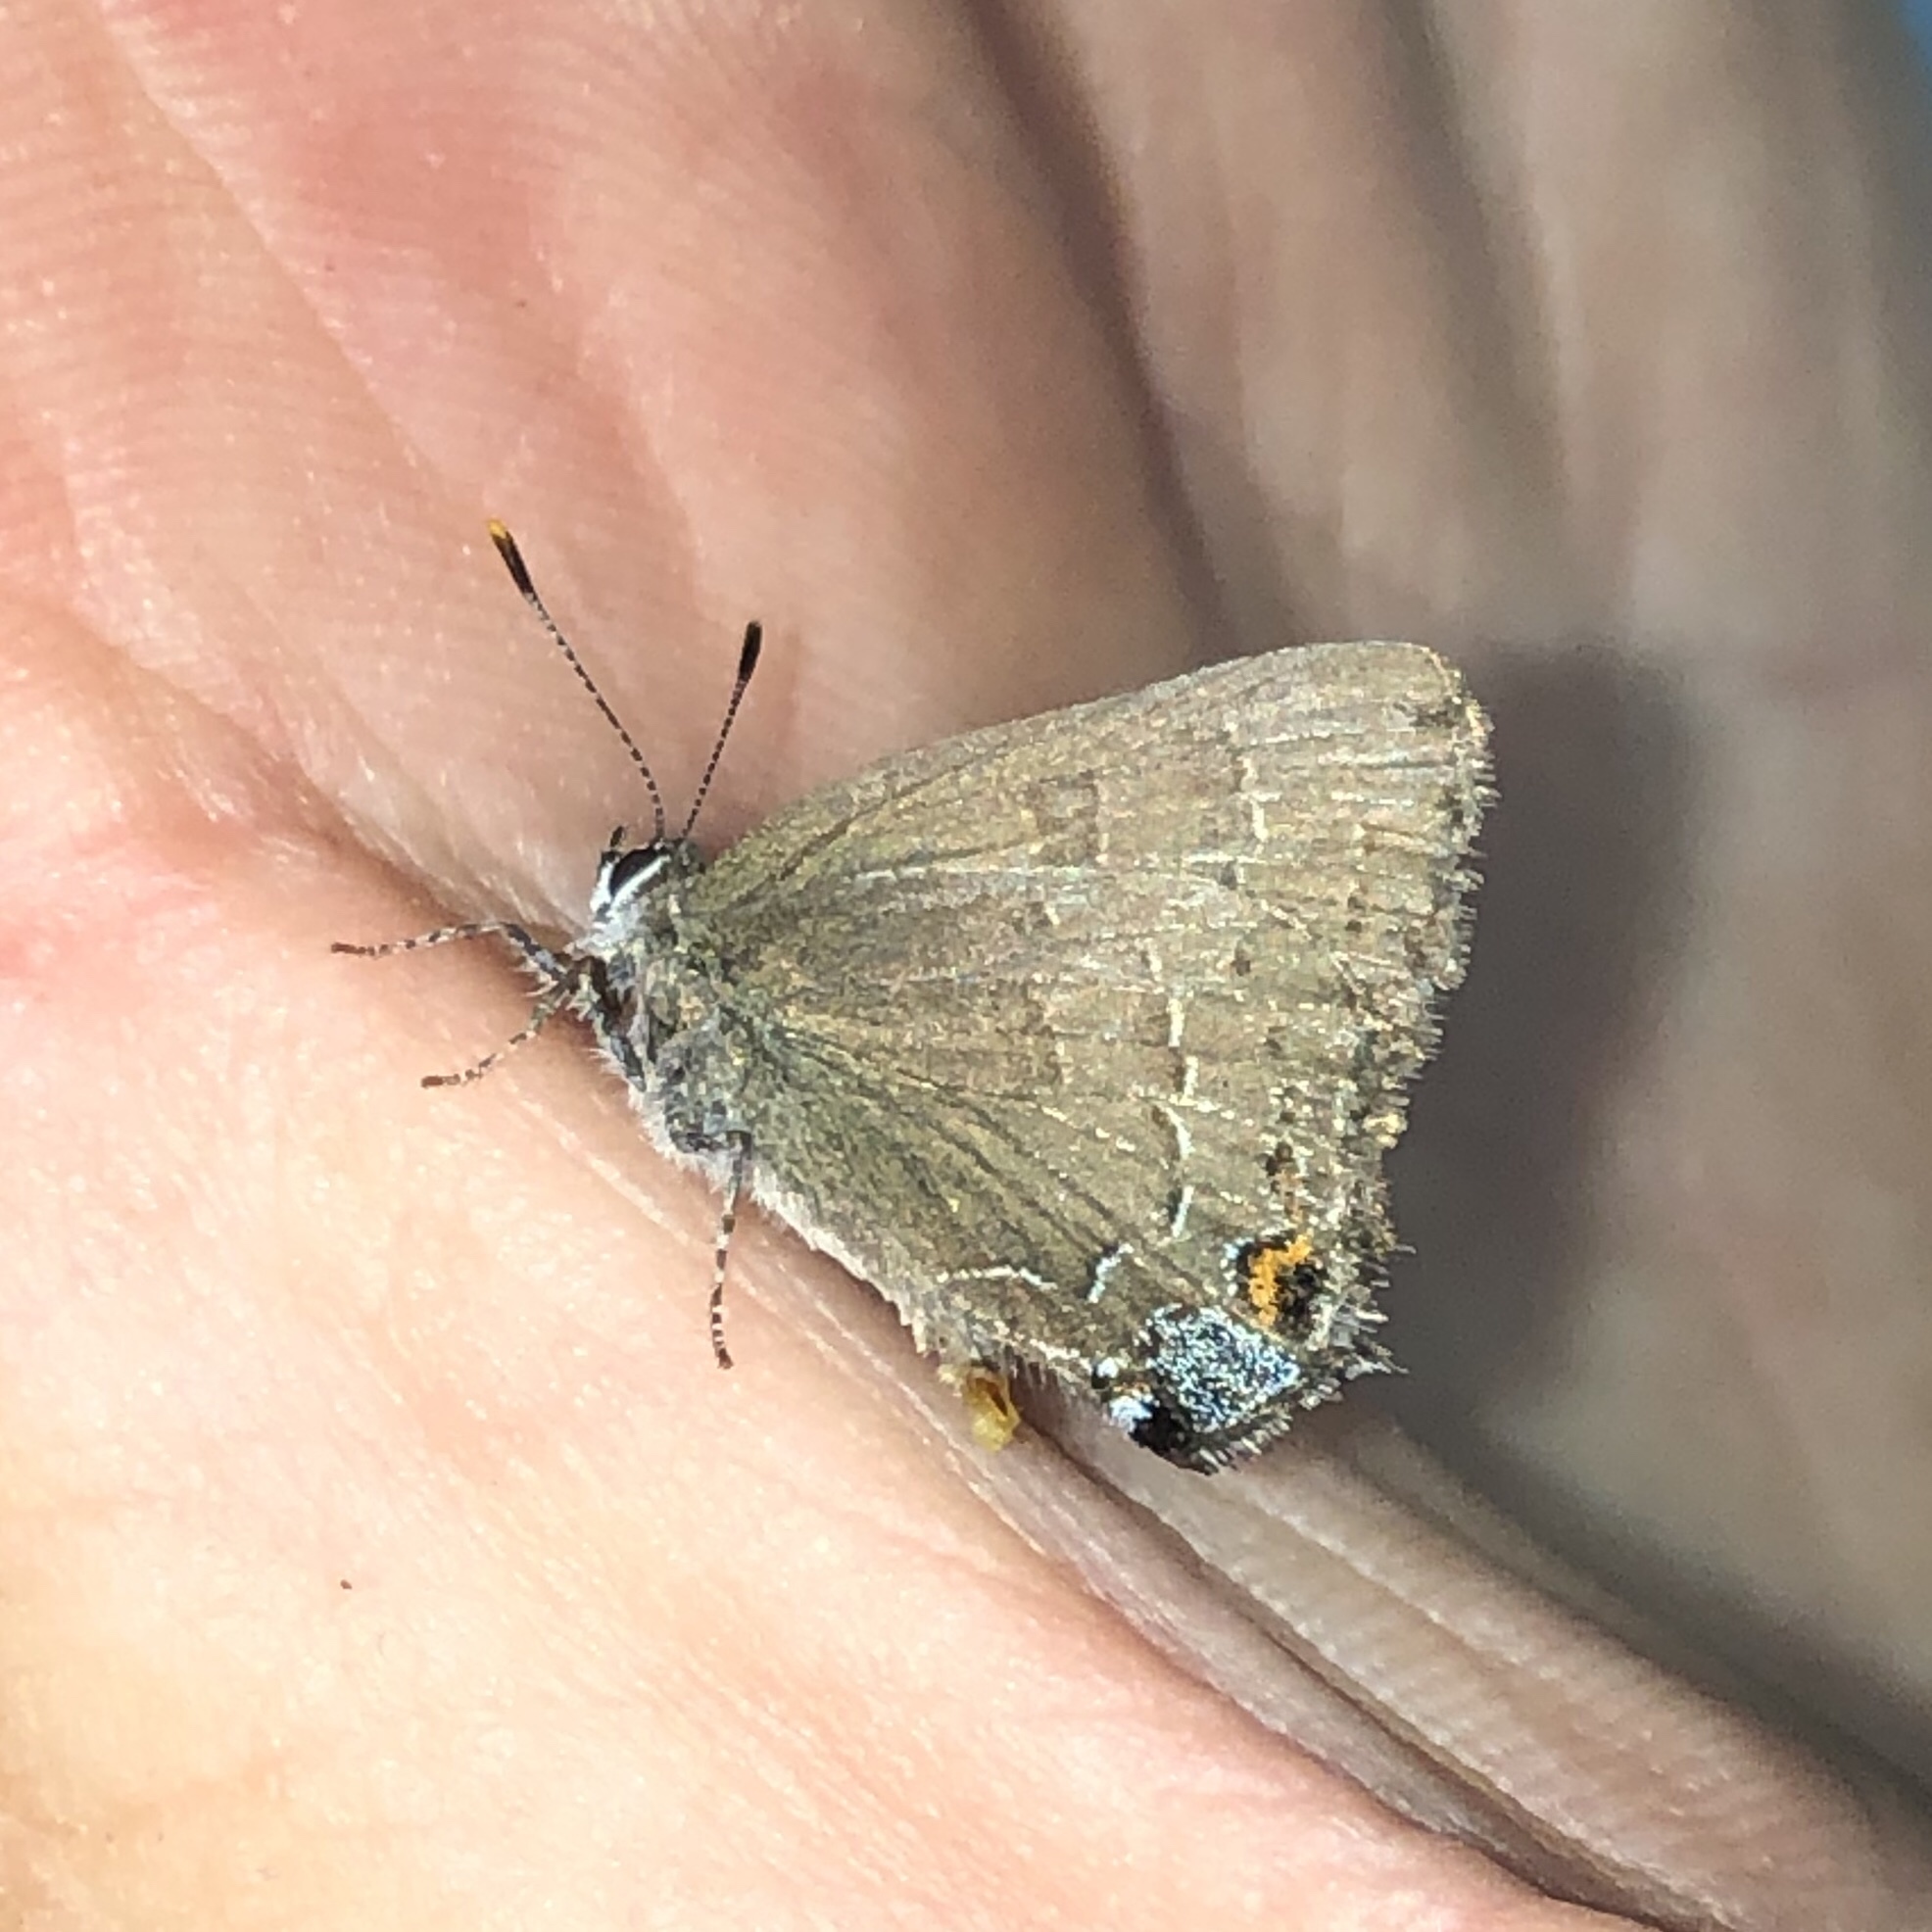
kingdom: Animalia
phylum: Arthropoda
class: Insecta
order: Lepidoptera
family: Lycaenidae
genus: Satyrium
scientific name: Satyrium calanus
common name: Banded hairstreak
